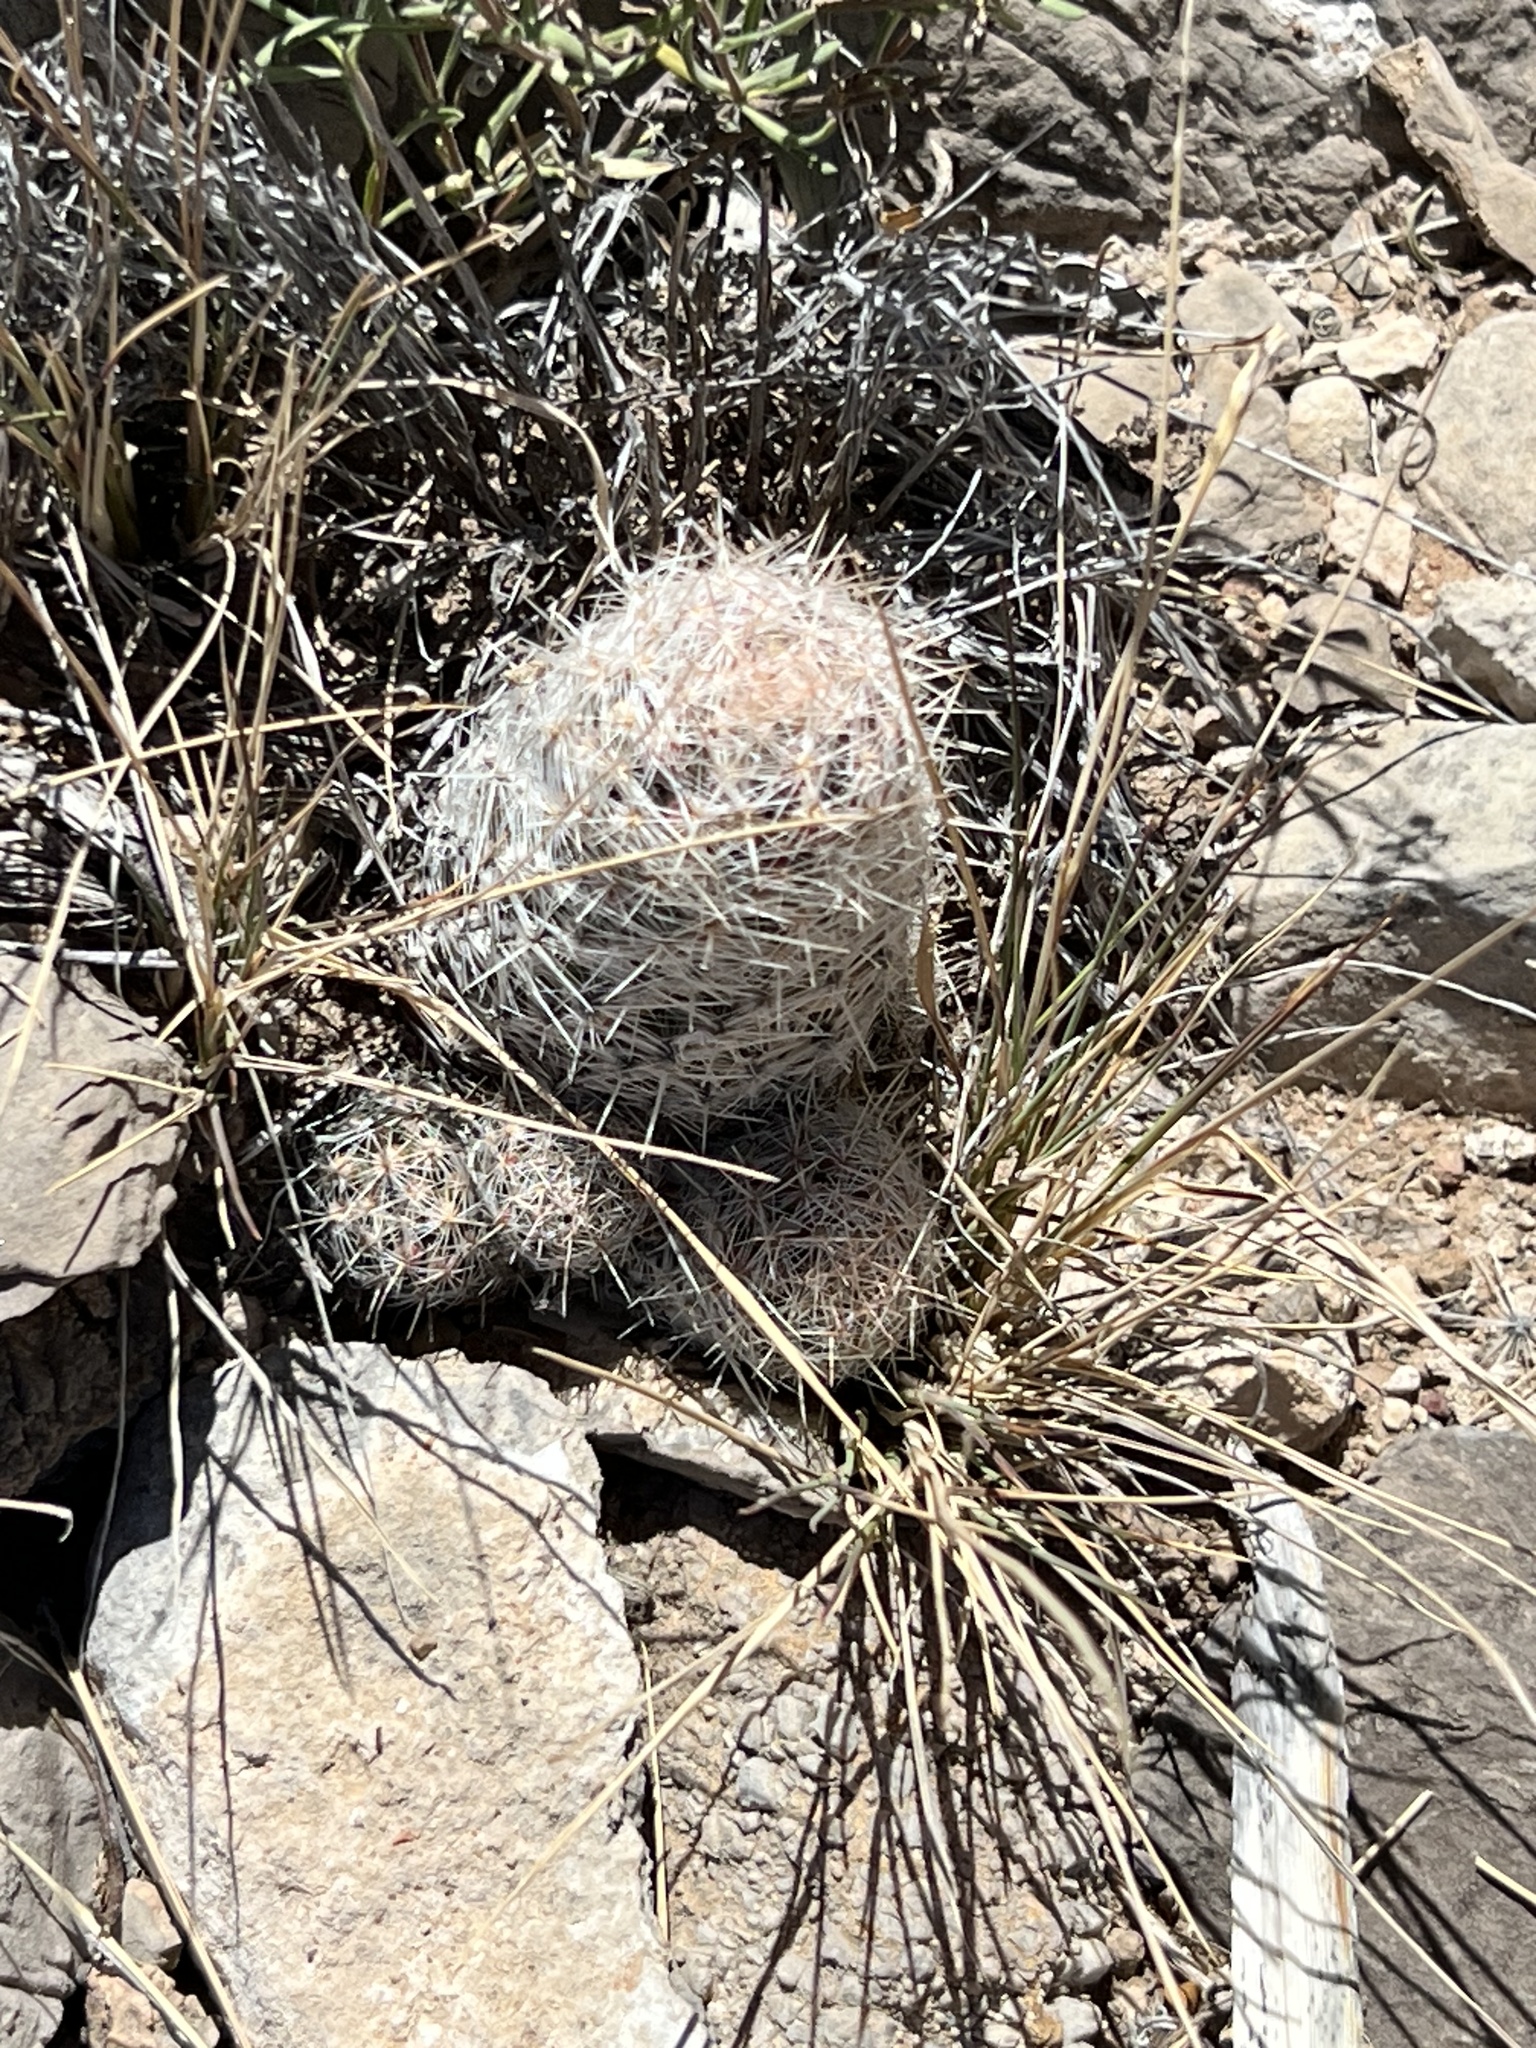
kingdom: Plantae
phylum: Tracheophyta
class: Magnoliopsida
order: Caryophyllales
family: Cactaceae
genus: Pelecyphora
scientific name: Pelecyphora tuberculosa
